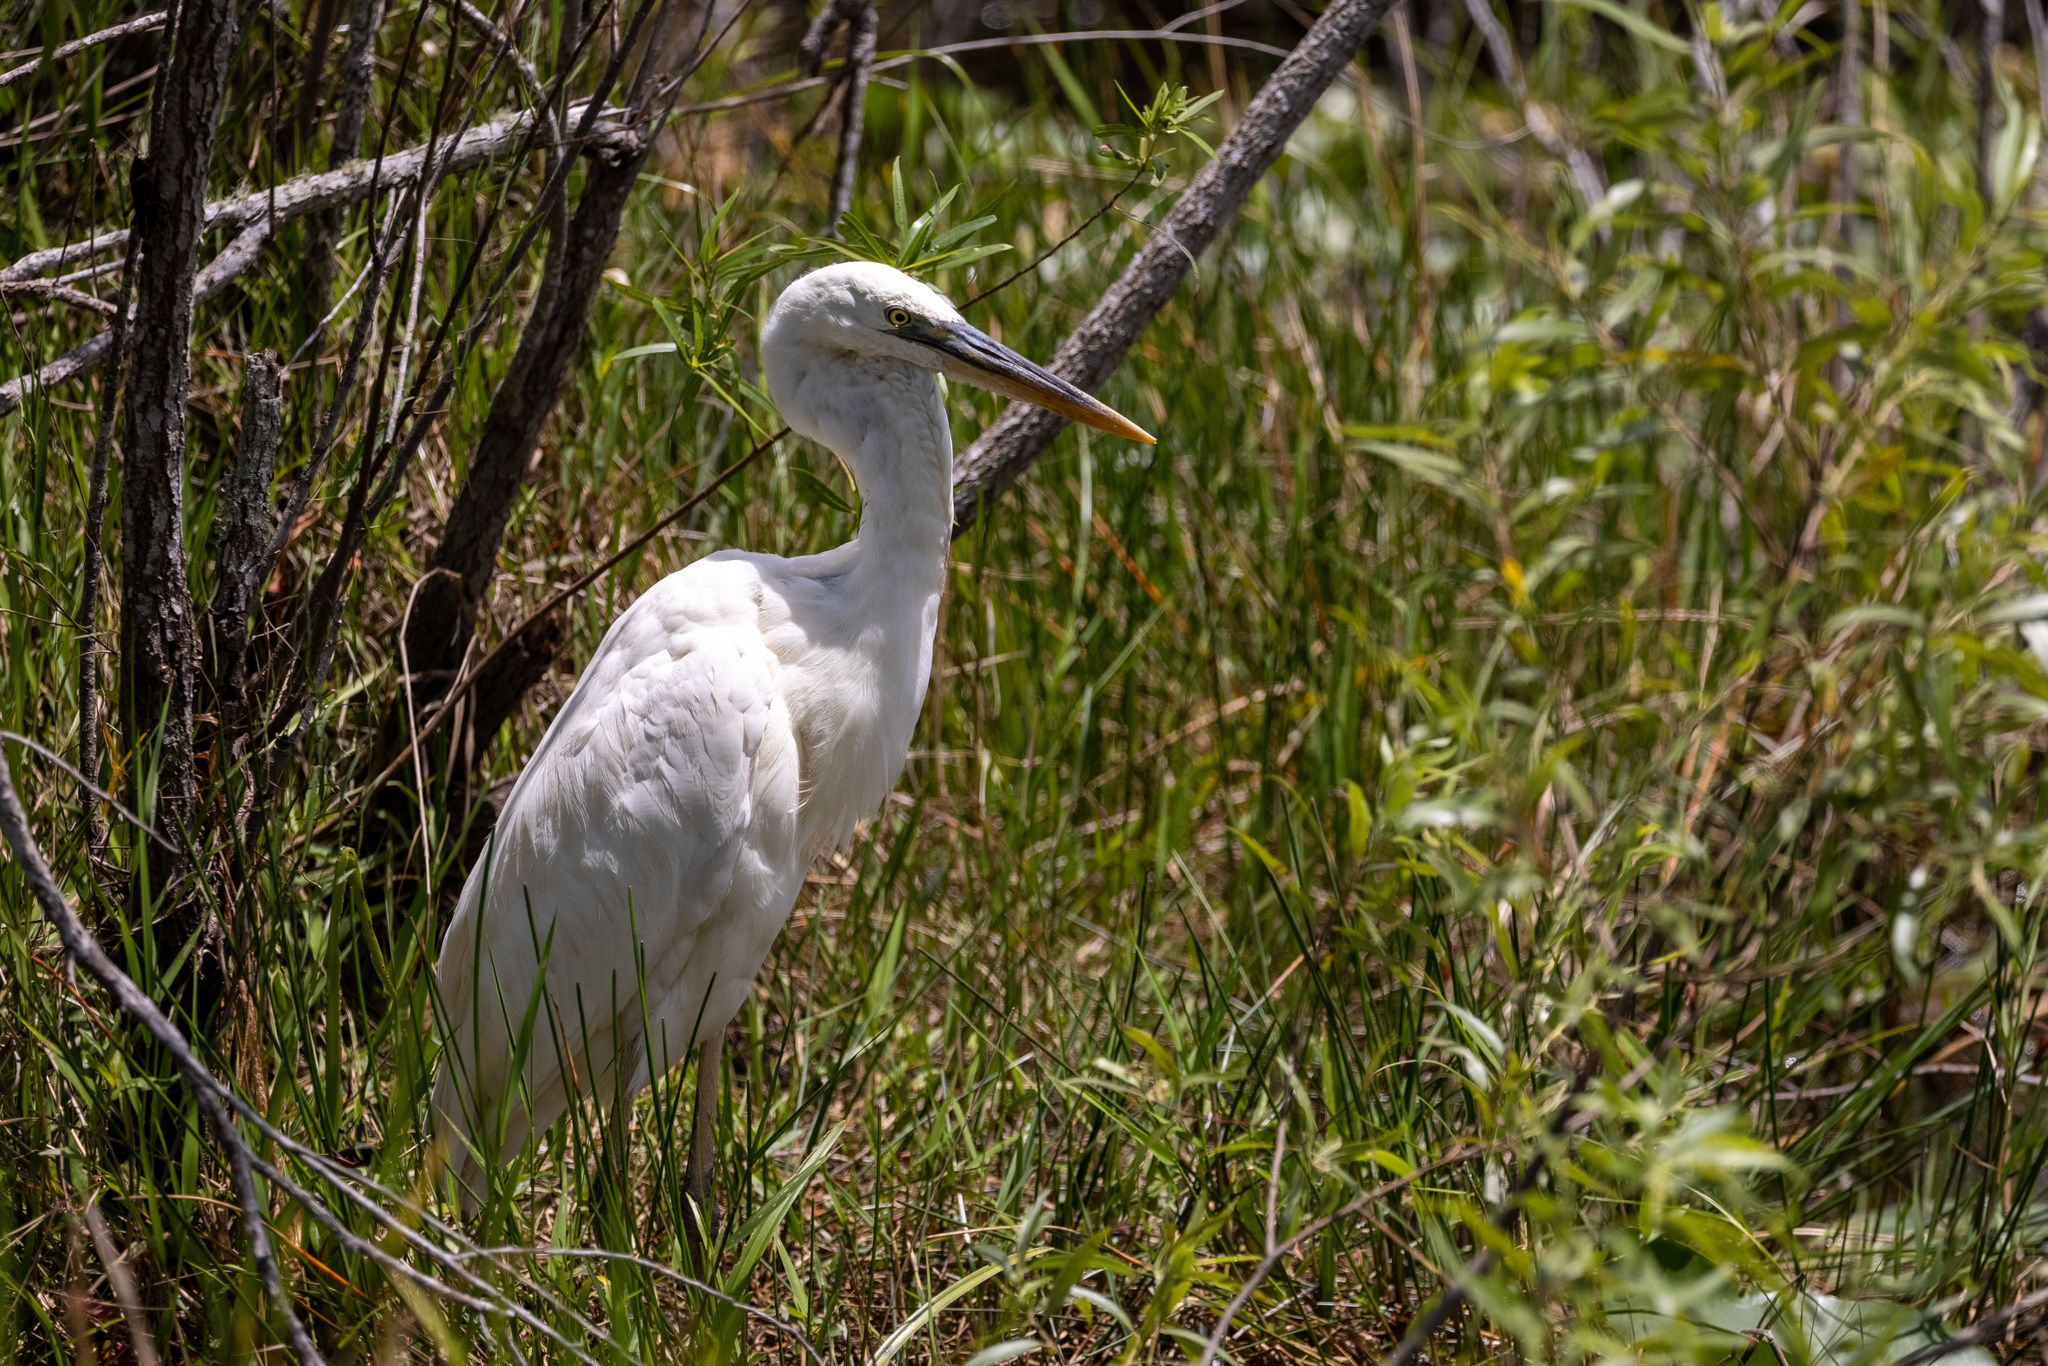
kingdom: Animalia
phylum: Chordata
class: Aves
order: Pelecaniformes
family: Ardeidae
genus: Ardea
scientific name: Ardea herodias
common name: Great blue heron
